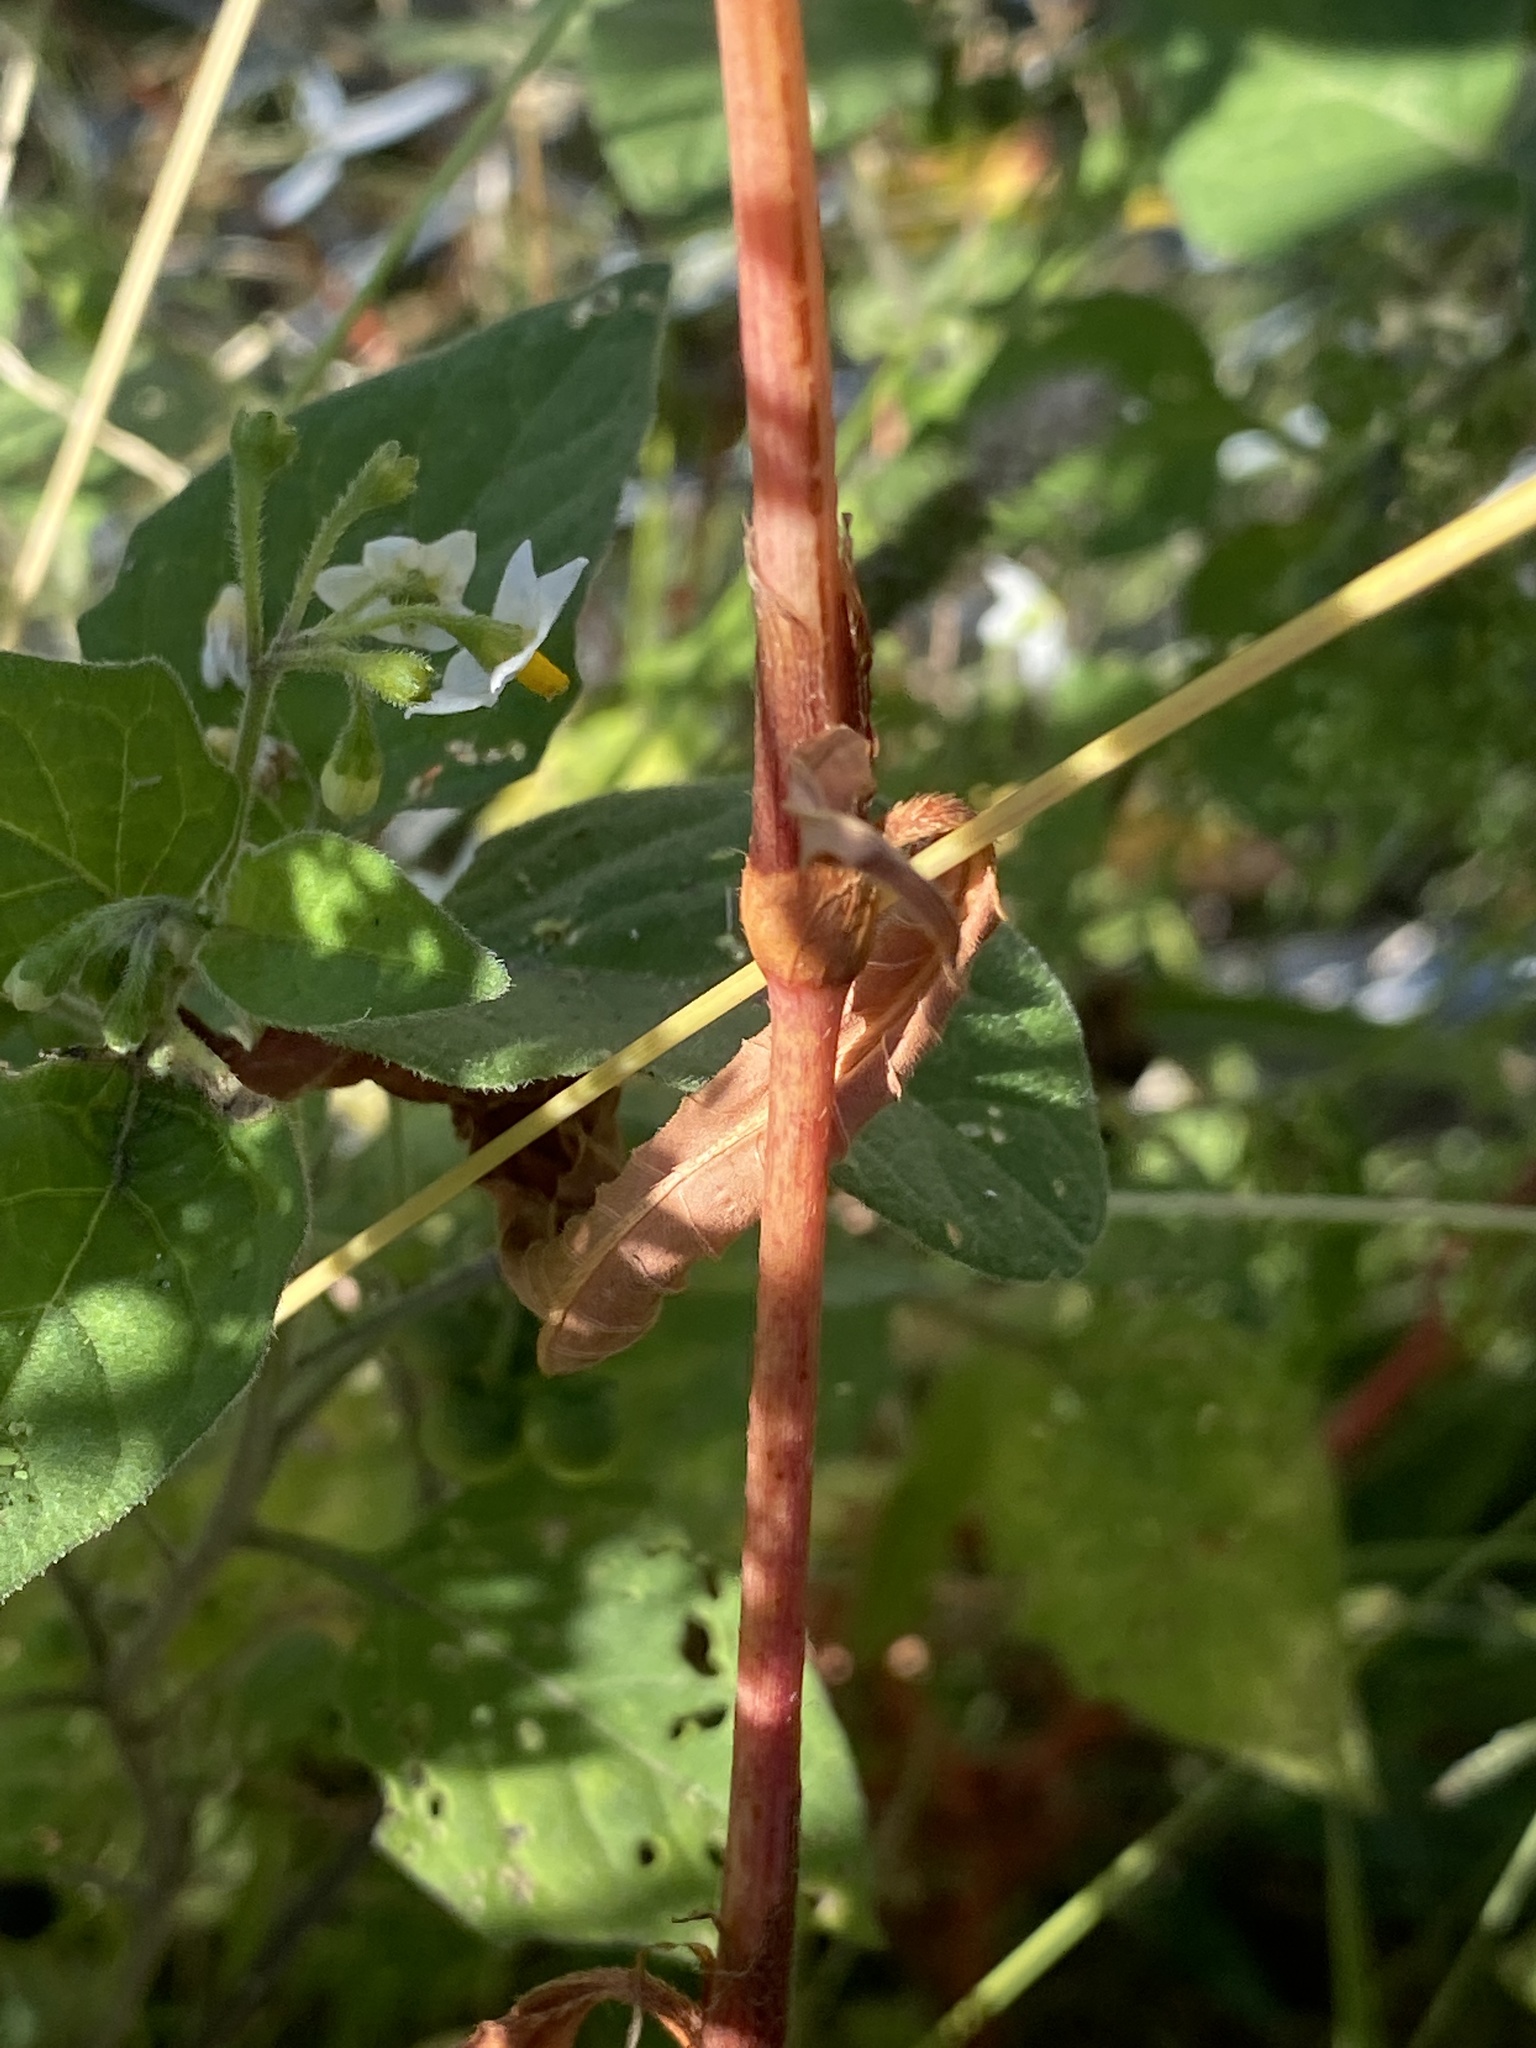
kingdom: Plantae
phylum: Tracheophyta
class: Magnoliopsida
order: Caryophyllales
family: Polygonaceae
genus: Persicaria
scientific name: Persicaria extremiorientalis
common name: Far-eastern smartweed
